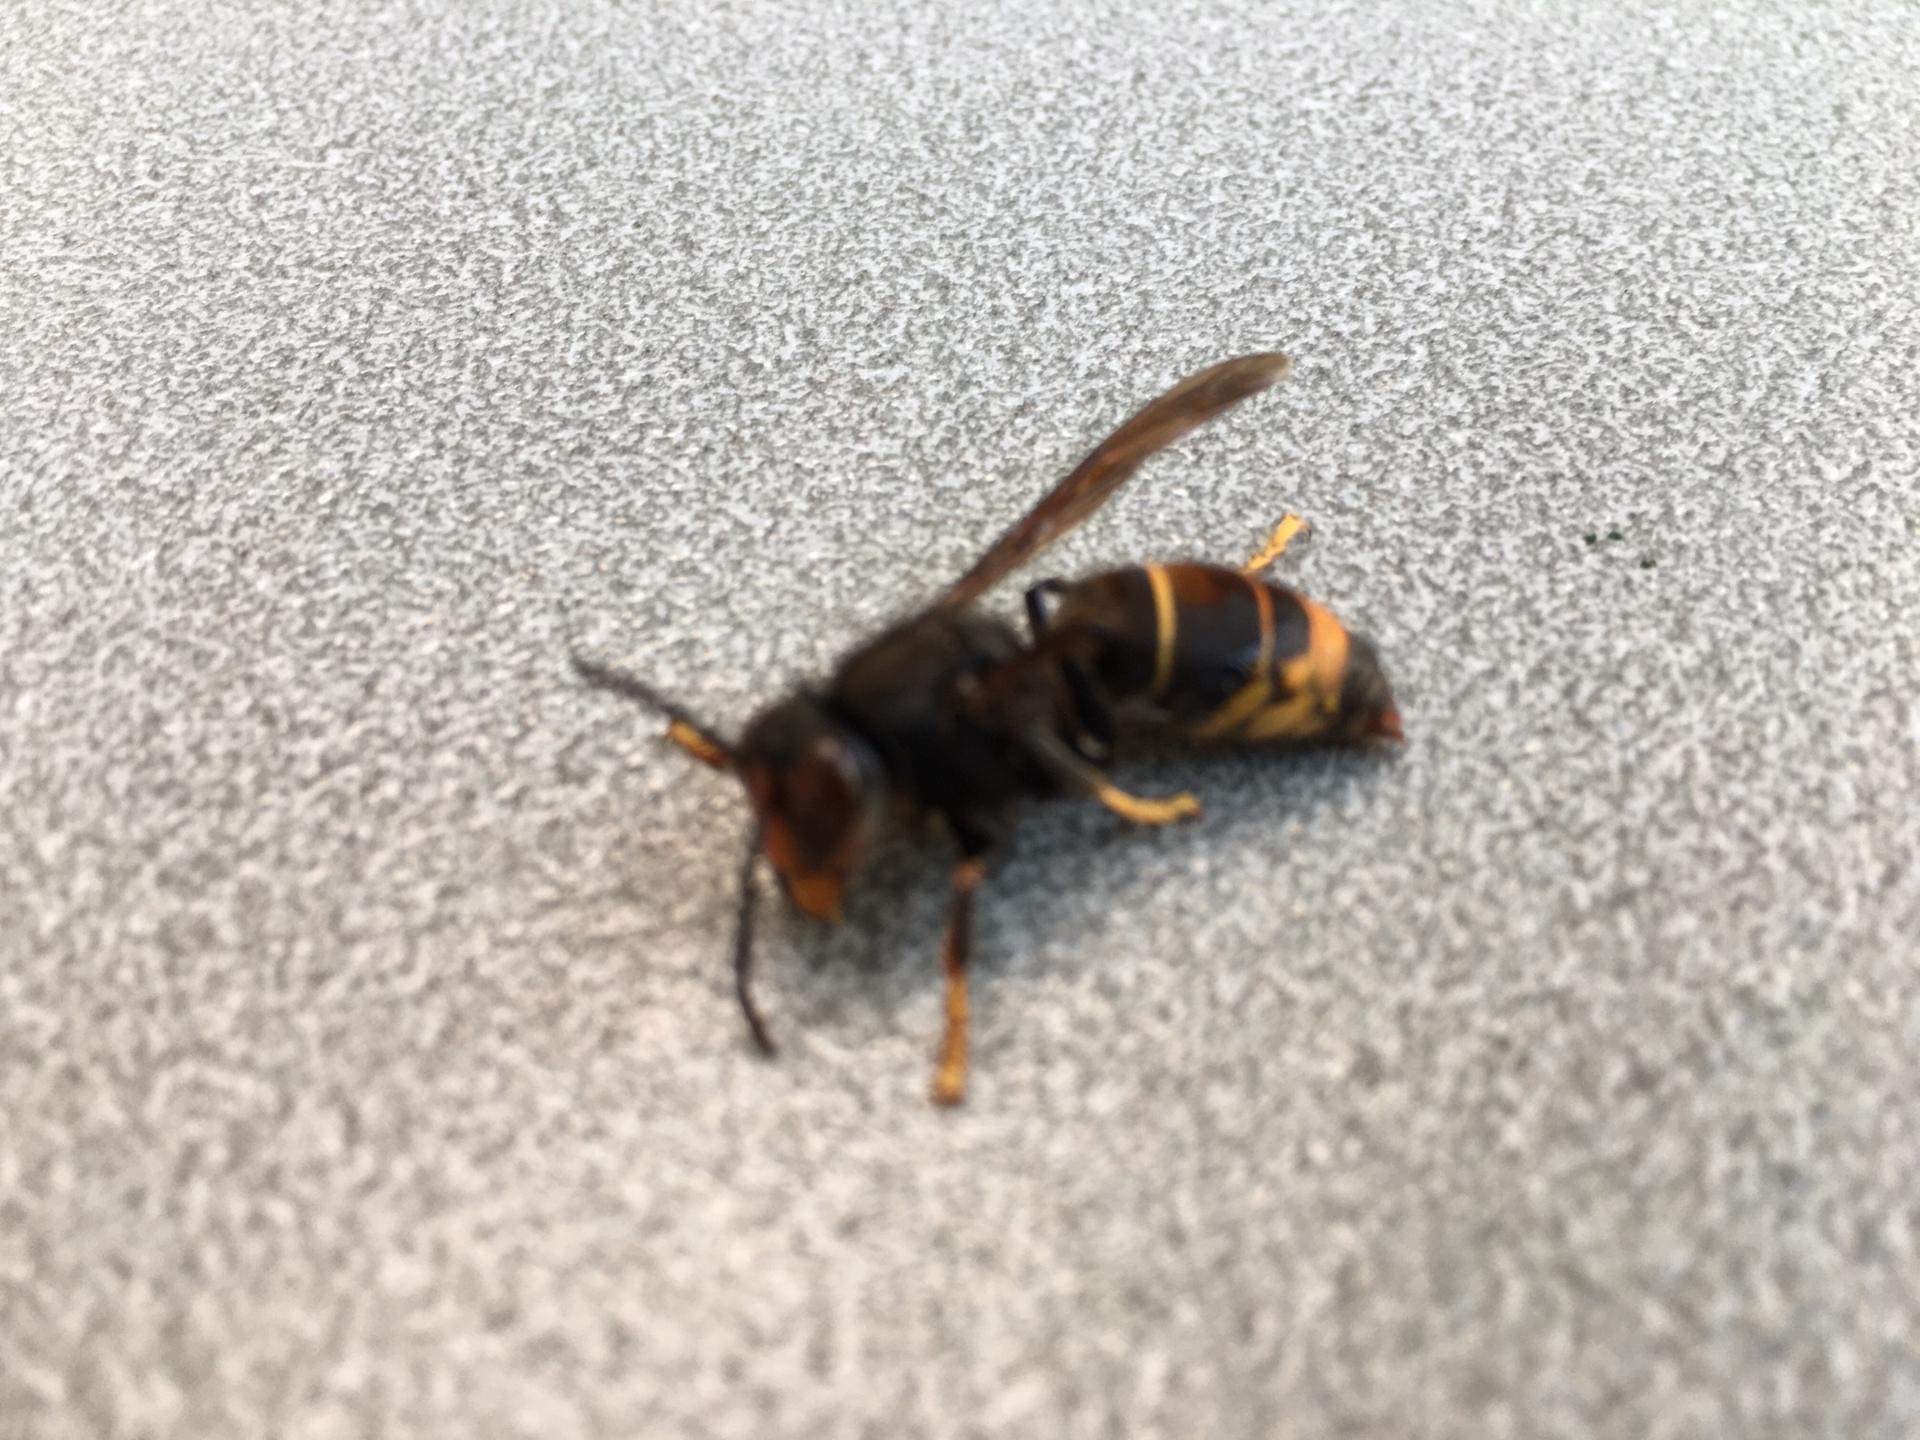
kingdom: Animalia
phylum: Arthropoda
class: Insecta
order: Hymenoptera
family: Vespidae
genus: Vespa
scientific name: Vespa velutina
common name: Asian hornet
